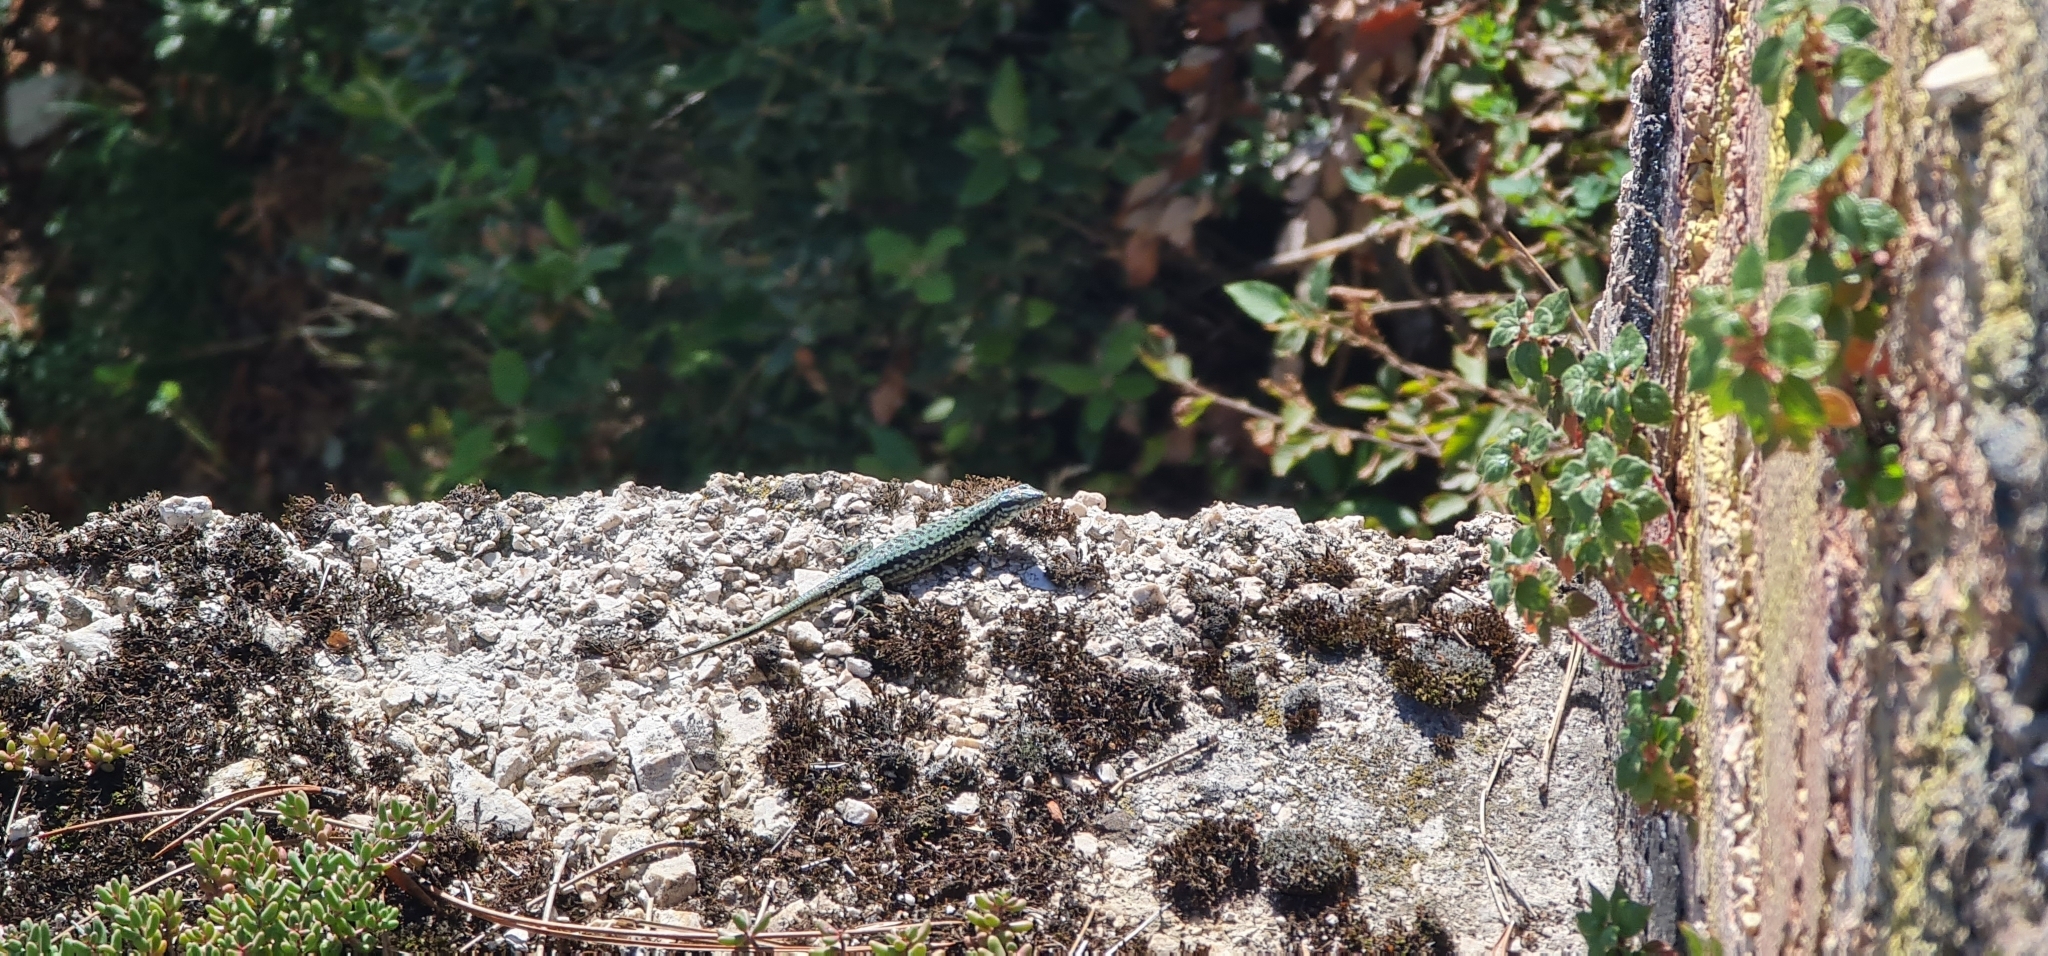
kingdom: Animalia
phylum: Chordata
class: Squamata
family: Lacertidae
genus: Podarcis
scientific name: Podarcis muralis
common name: Common wall lizard
